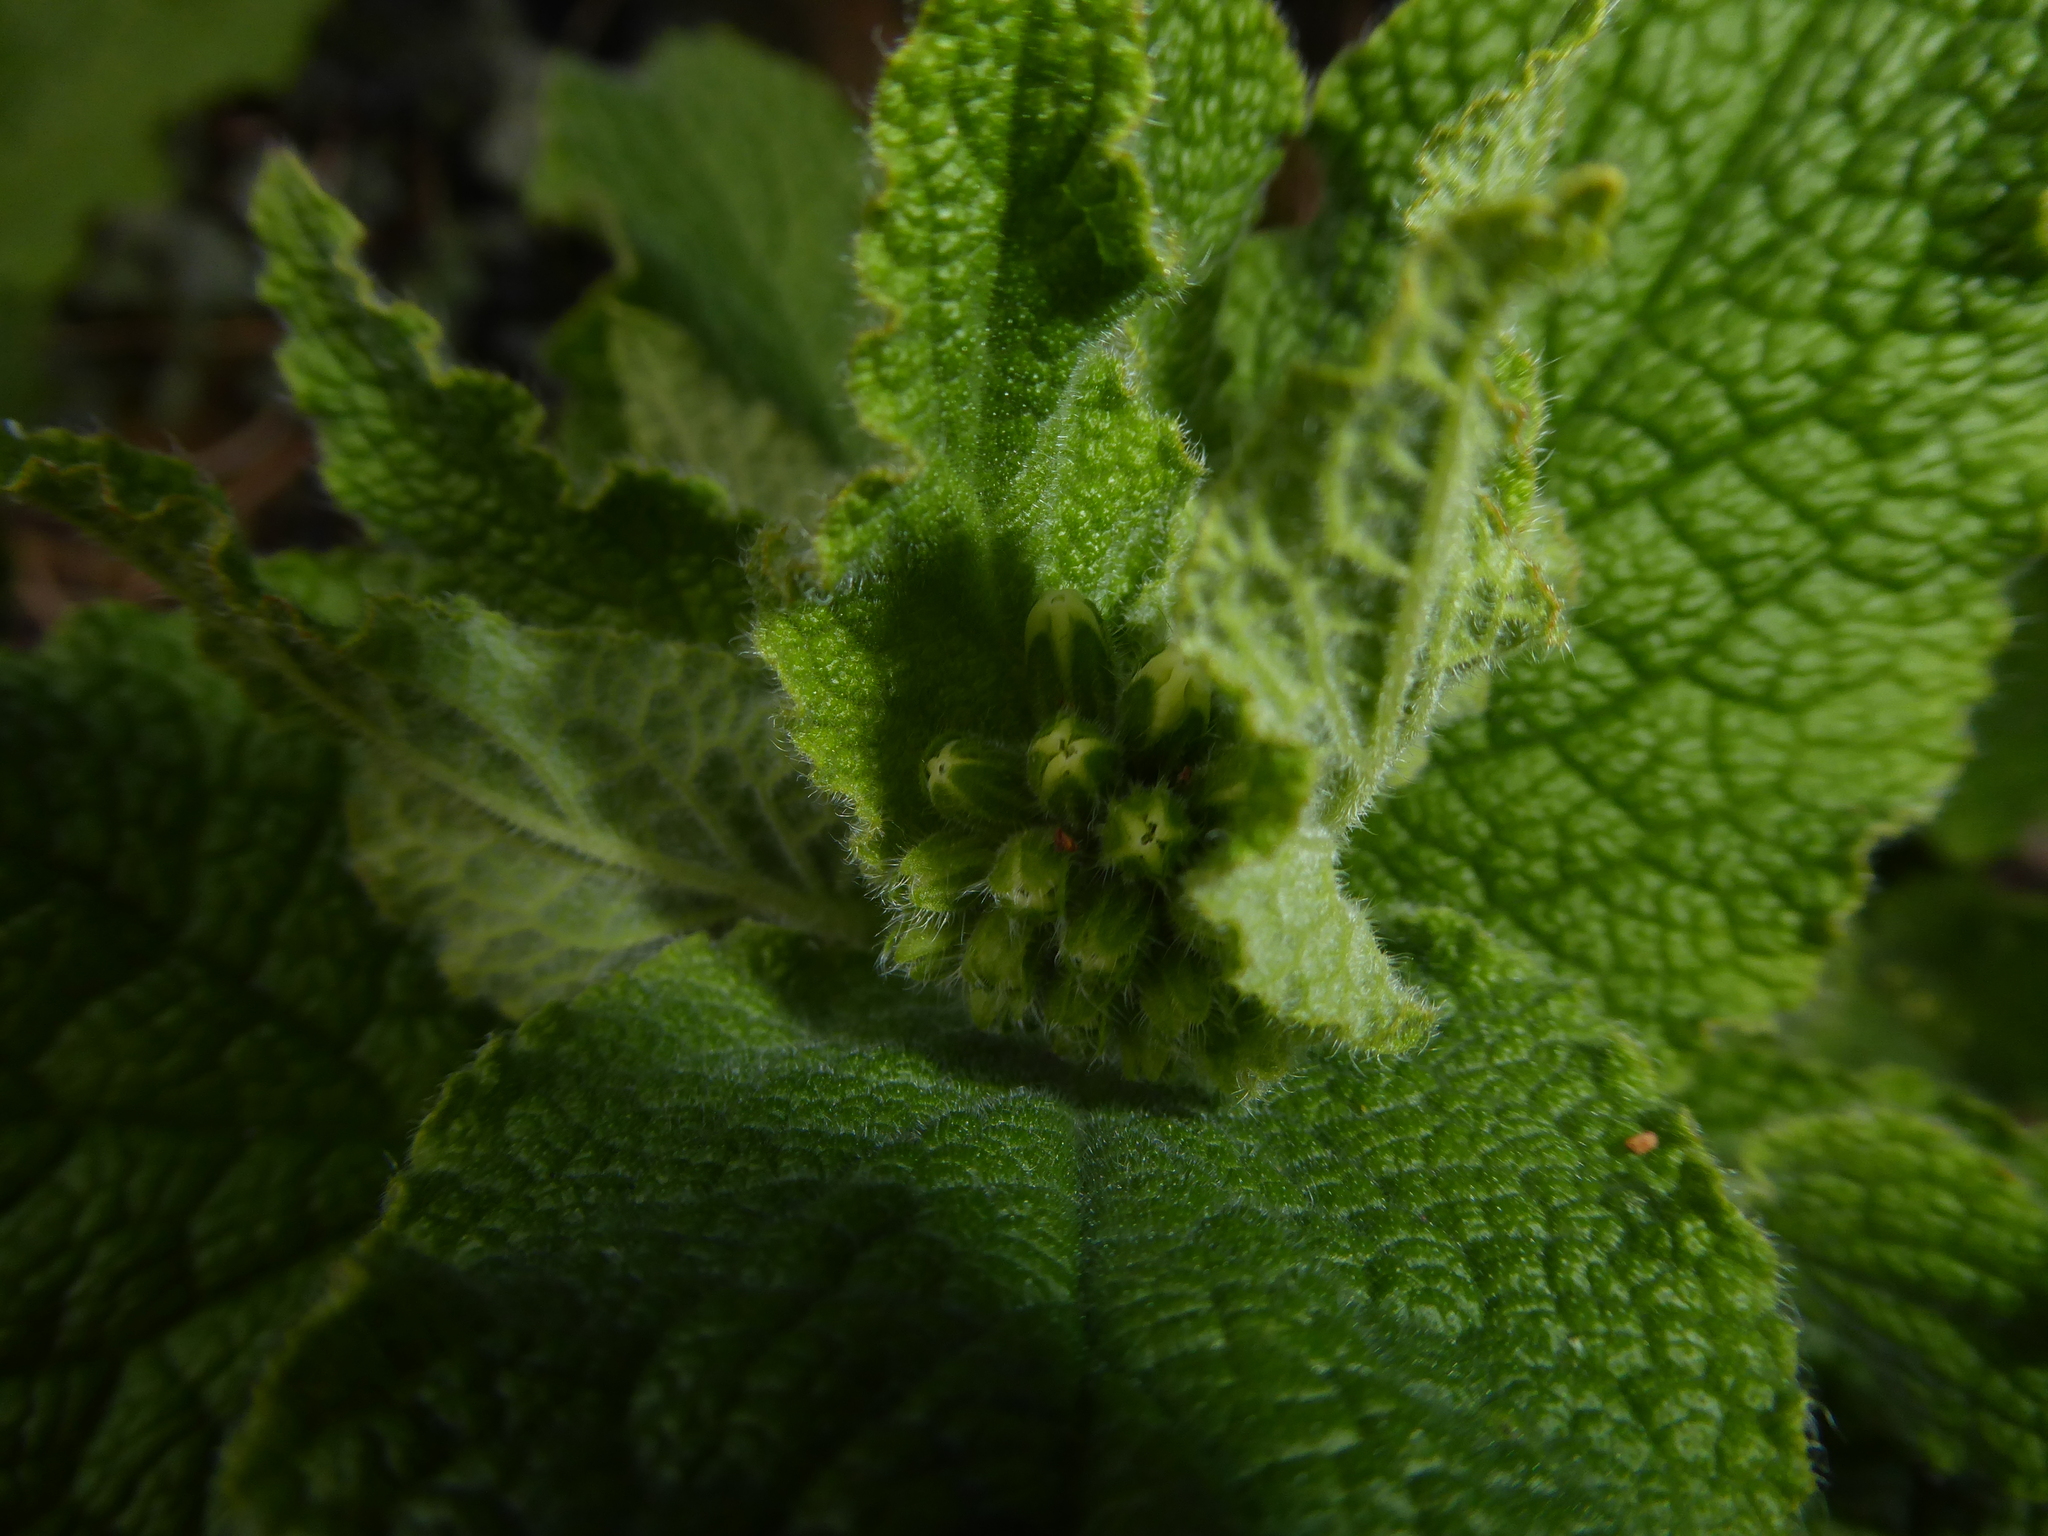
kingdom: Plantae
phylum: Tracheophyta
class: Magnoliopsida
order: Boraginales
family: Boraginaceae
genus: Symphytum
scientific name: Symphytum orientale
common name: White comfrey
